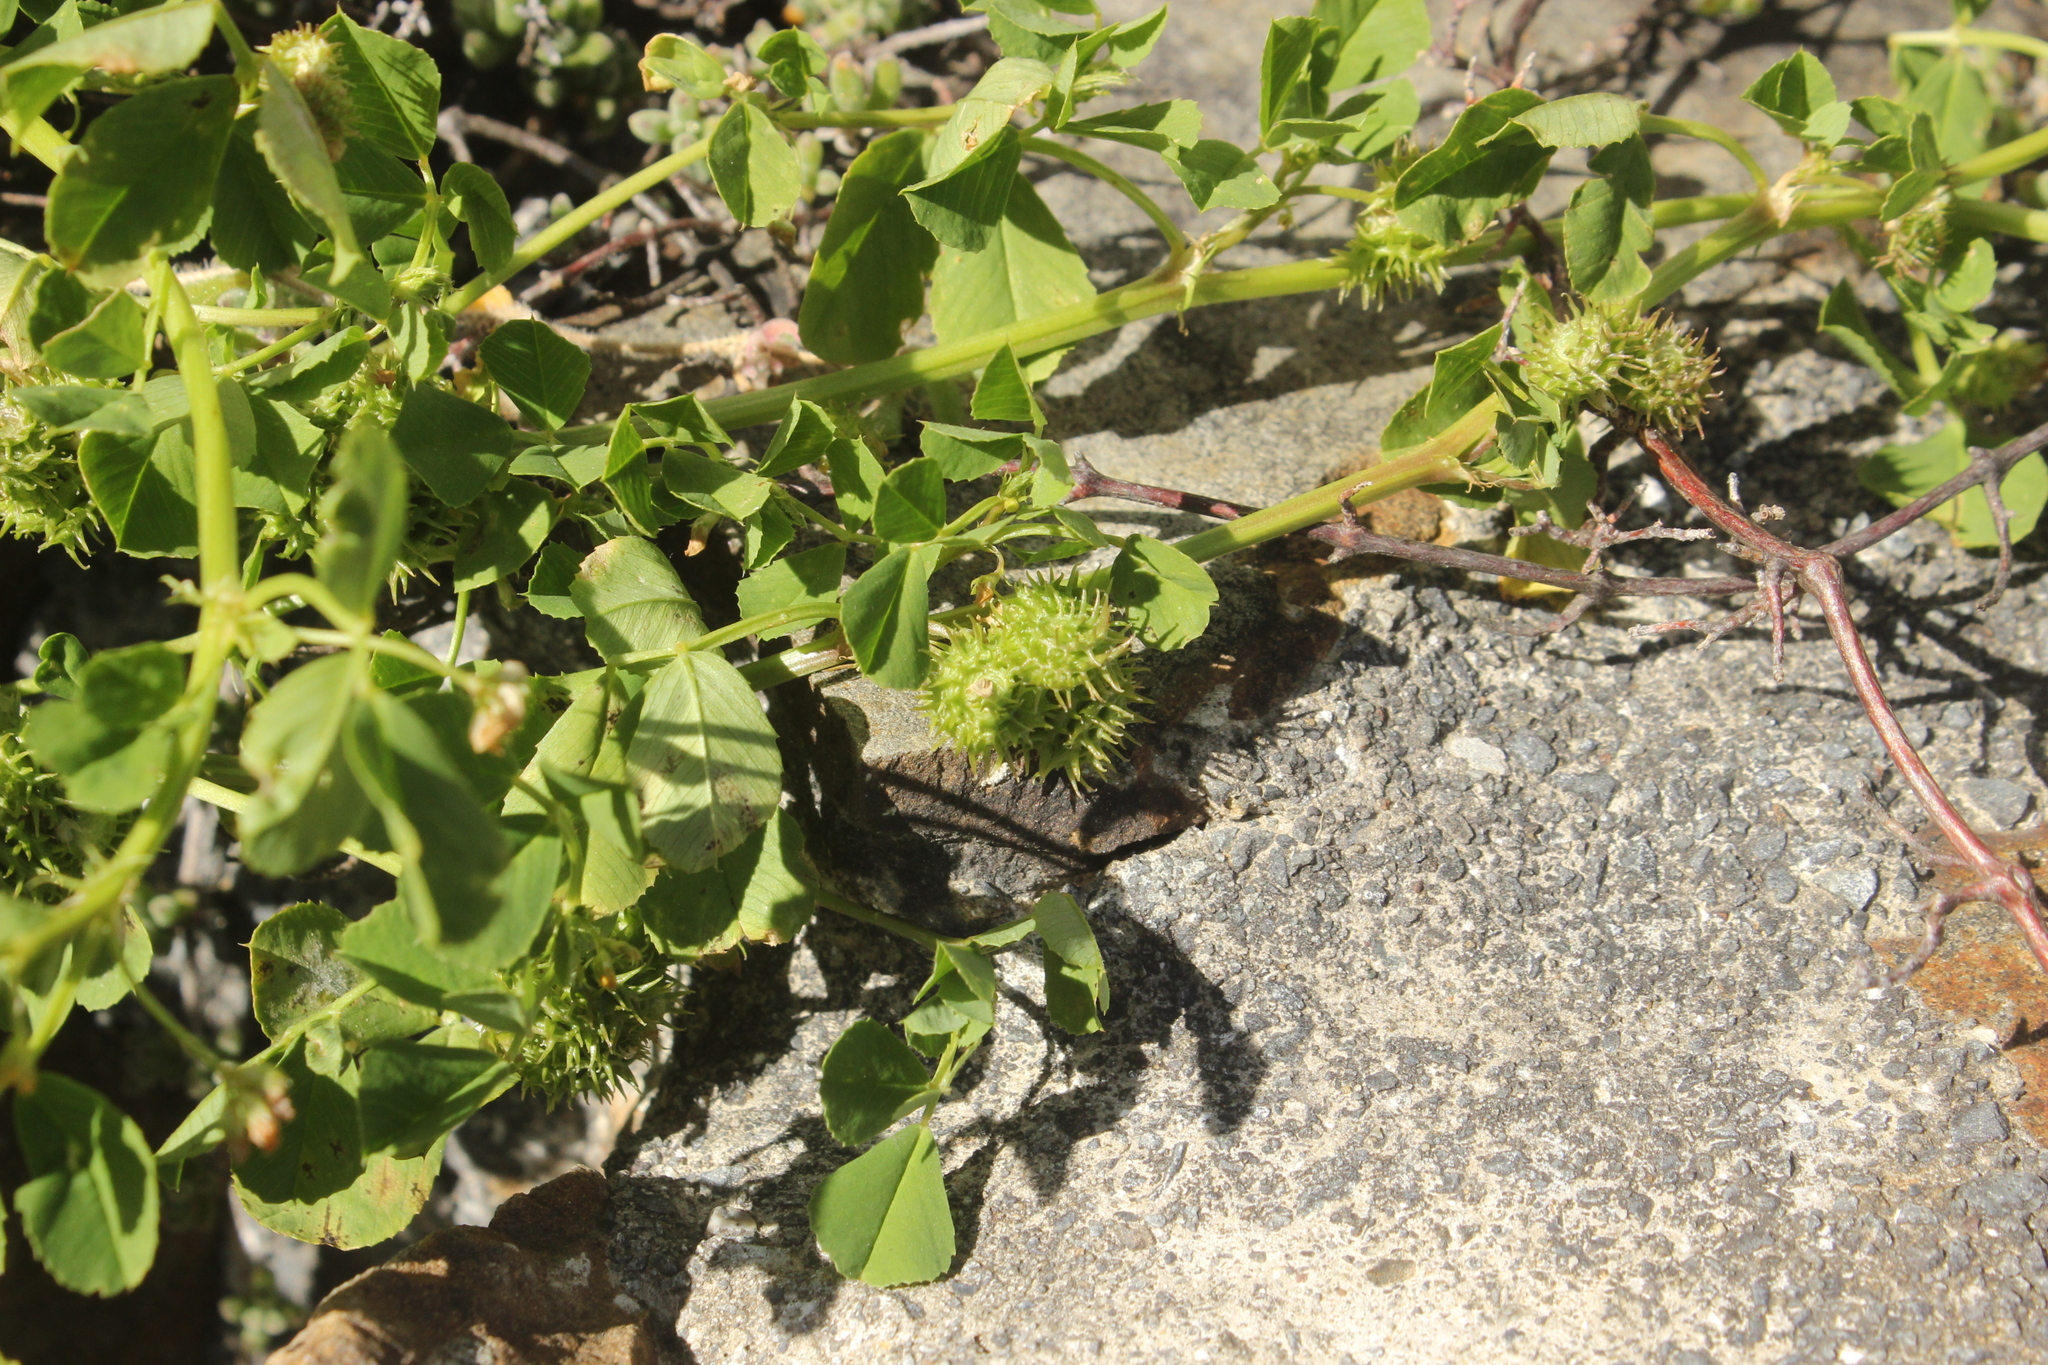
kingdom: Plantae
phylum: Tracheophyta
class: Magnoliopsida
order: Fabales
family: Fabaceae
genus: Medicago
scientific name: Medicago polymorpha
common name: Burclover
